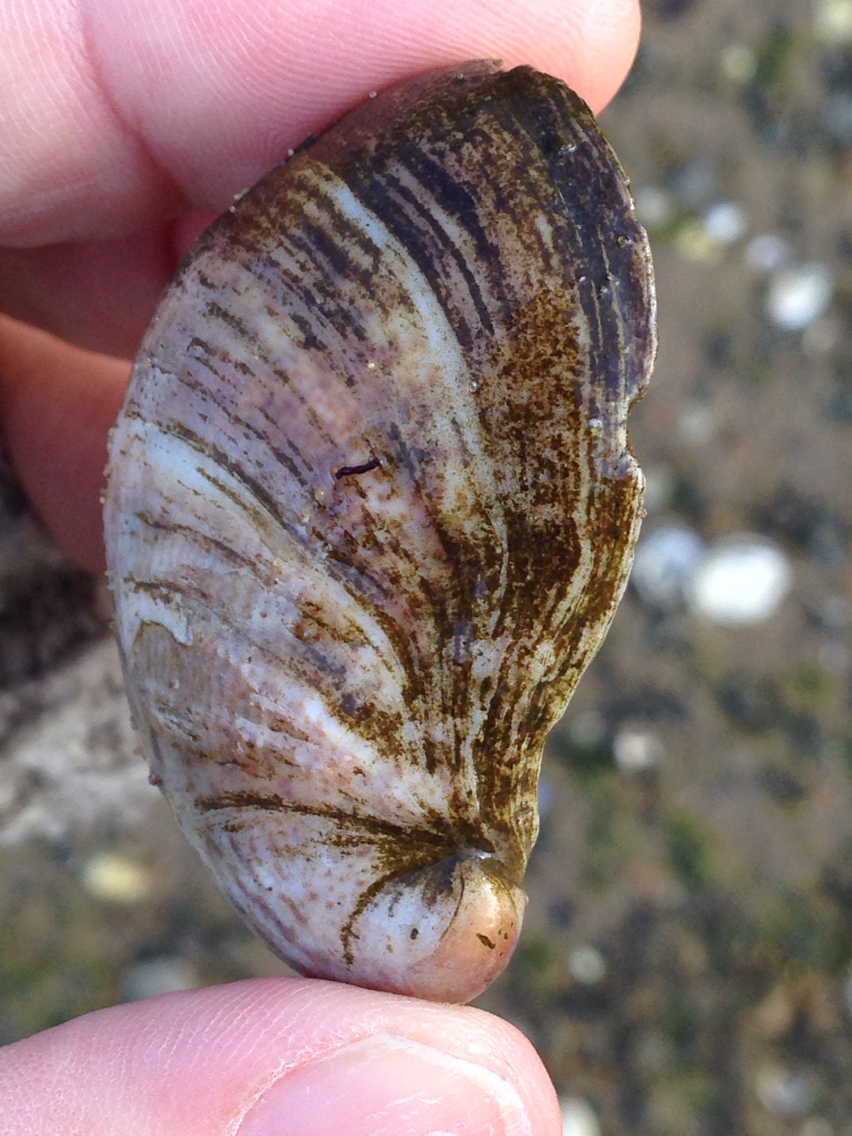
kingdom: Animalia
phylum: Mollusca
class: Gastropoda
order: Littorinimorpha
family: Calyptraeidae
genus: Crepidula
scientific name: Crepidula fornicata
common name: Slipper limpet
